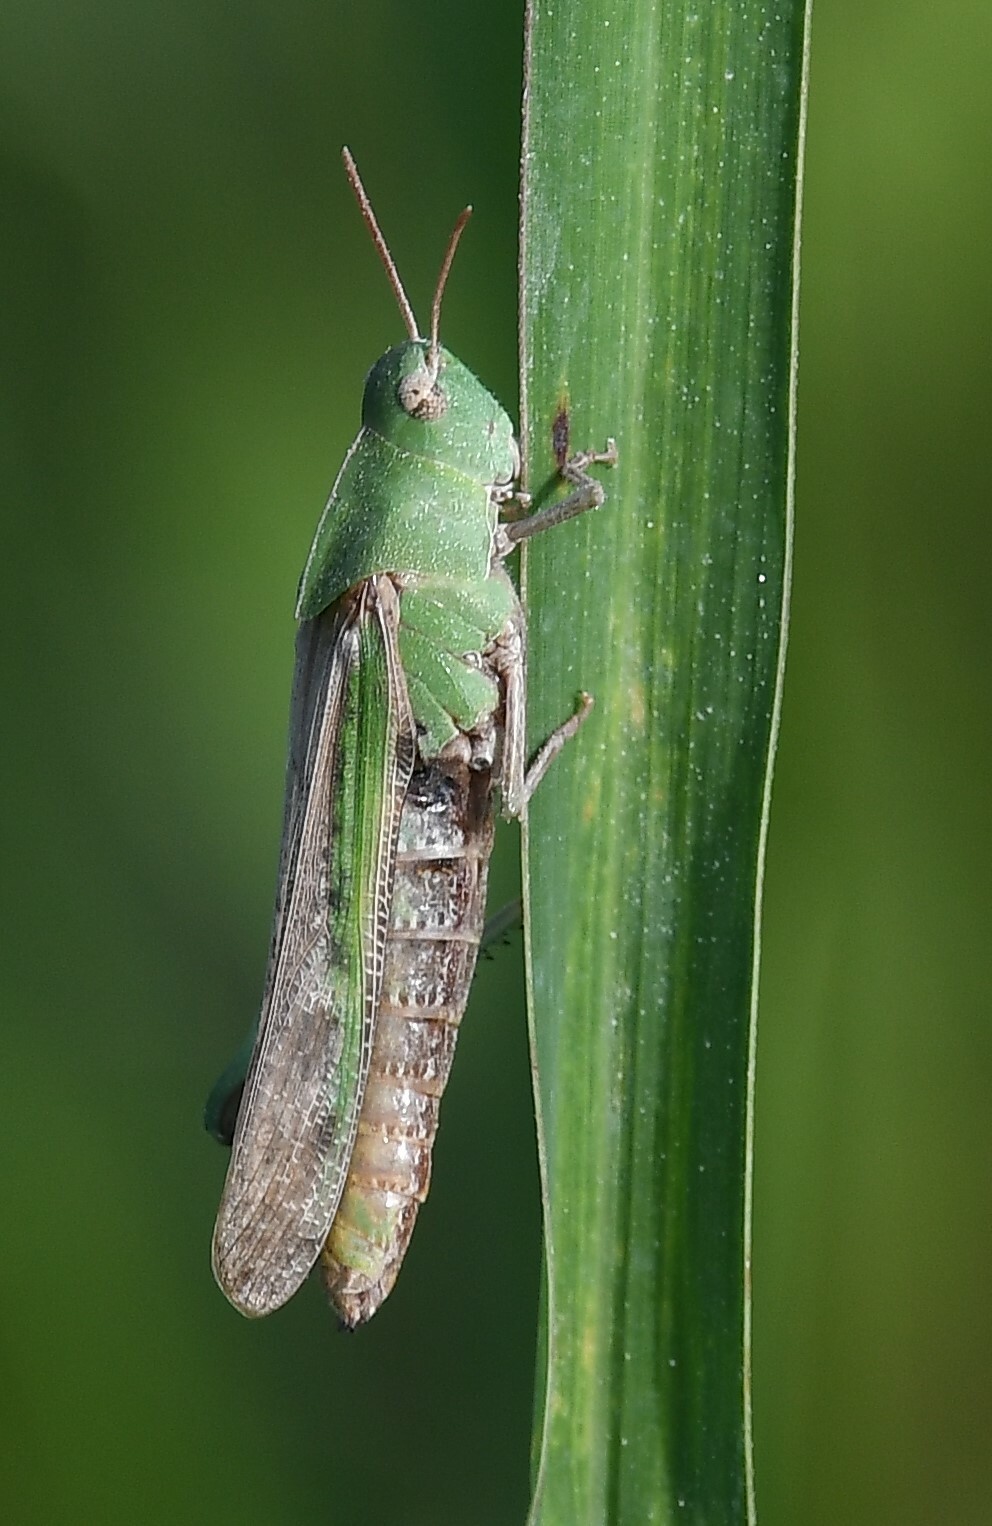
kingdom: Animalia
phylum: Arthropoda
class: Insecta
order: Orthoptera
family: Acrididae
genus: Chortophaga
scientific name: Chortophaga viridifasciata
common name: Green-striped grasshopper
